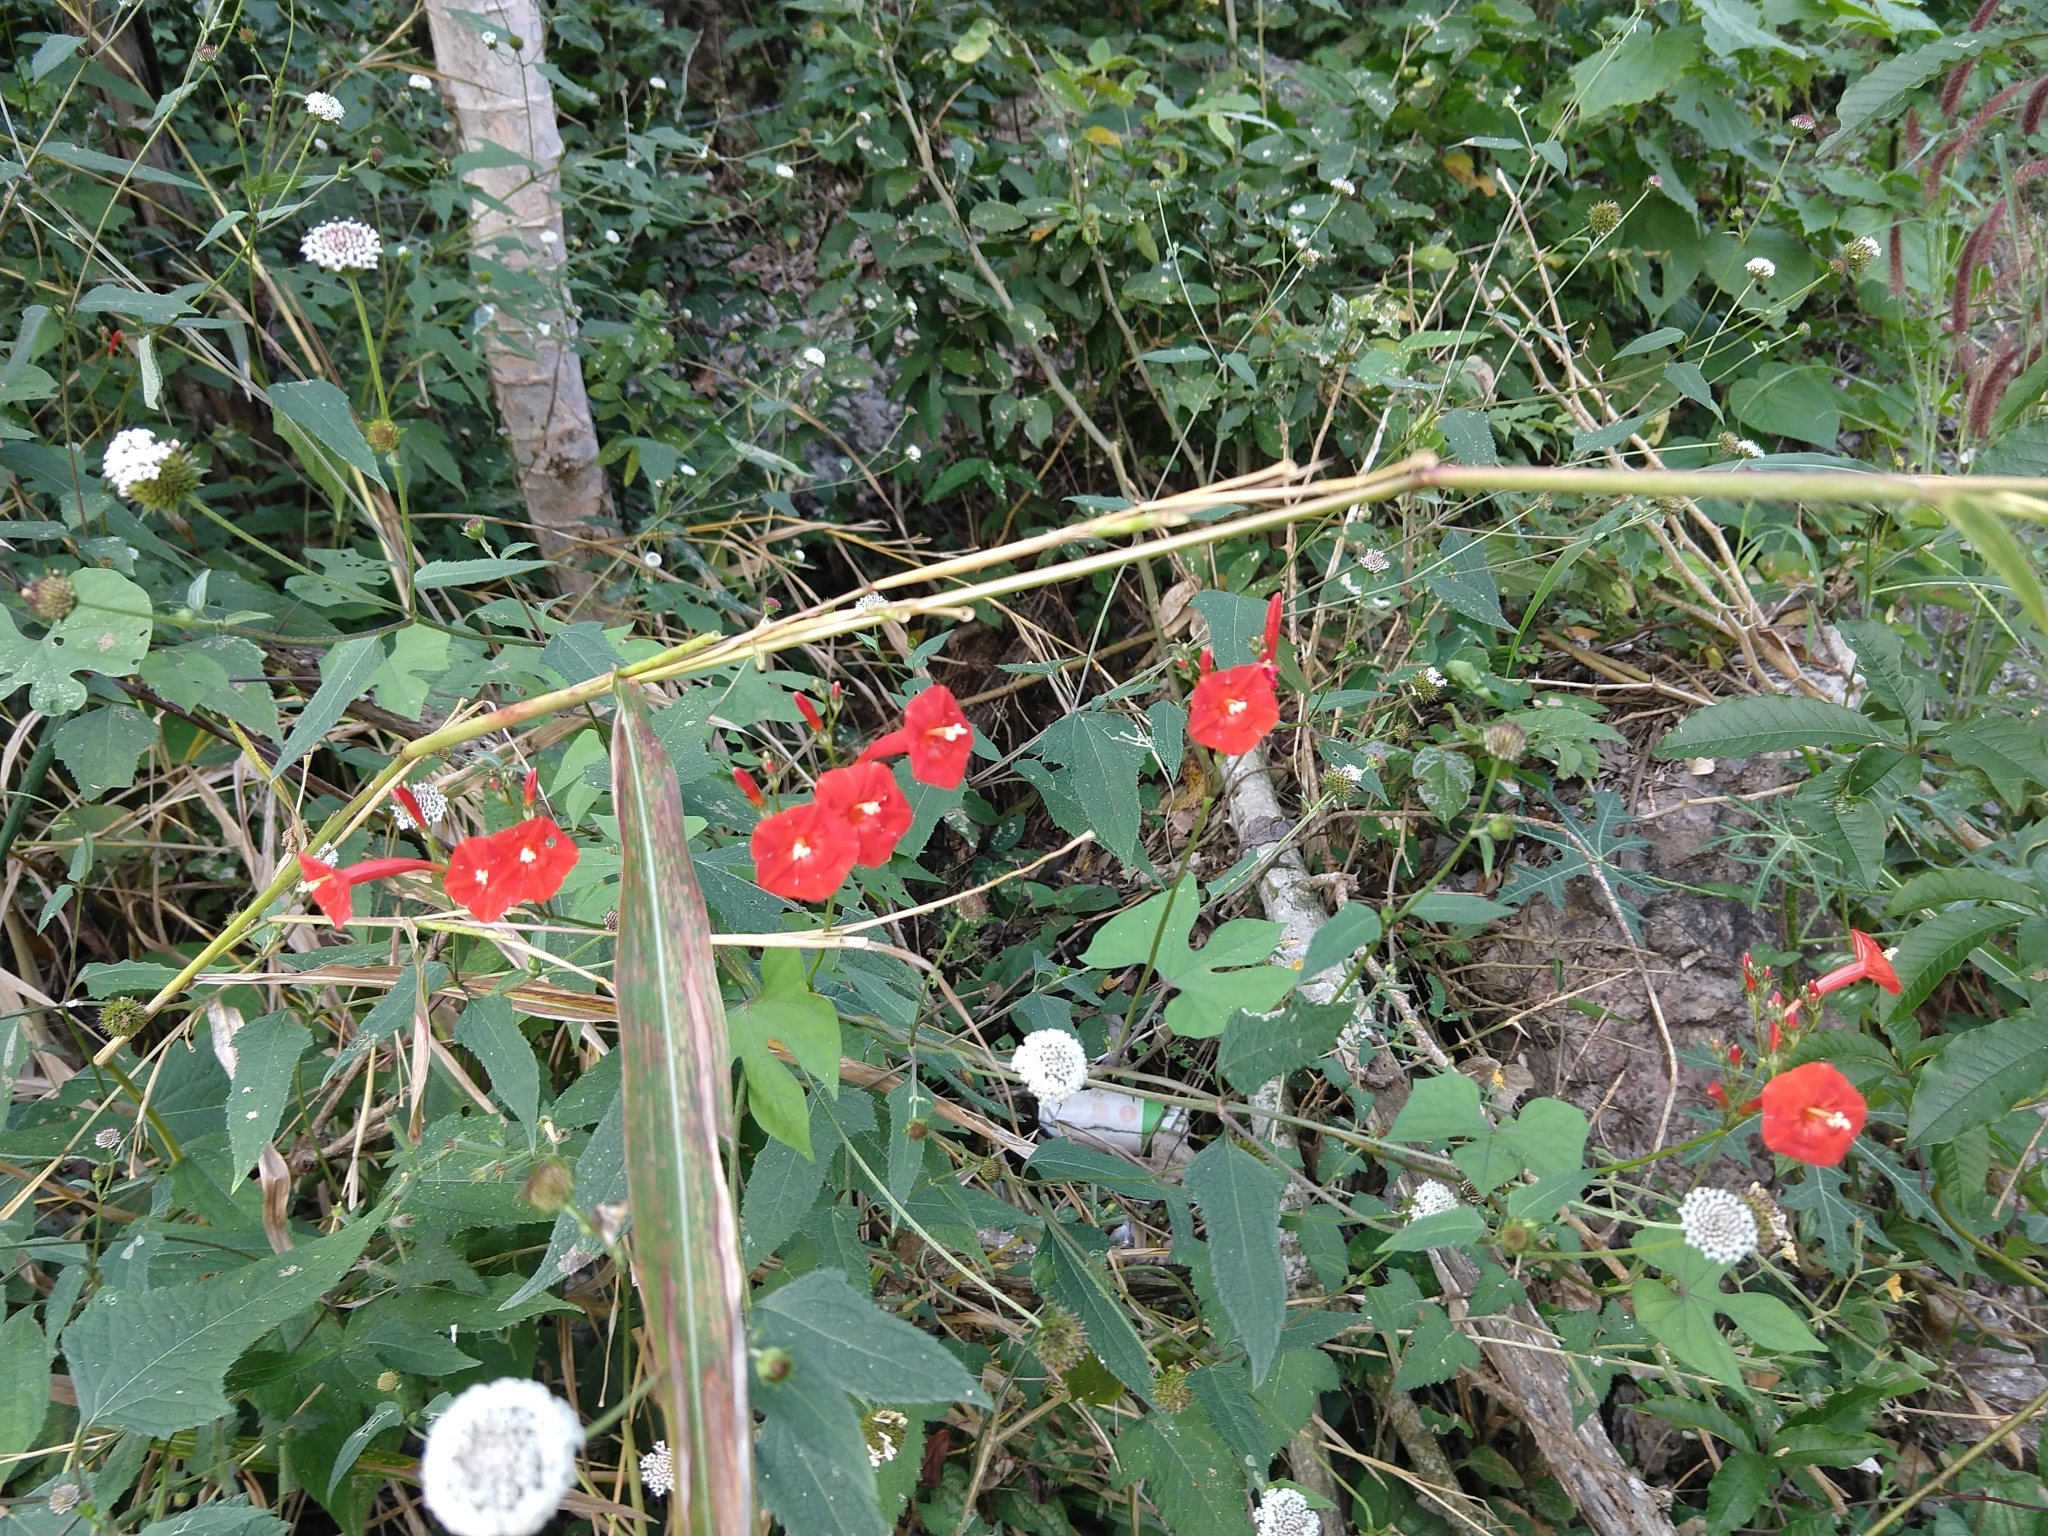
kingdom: Plantae
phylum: Tracheophyta
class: Magnoliopsida
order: Solanales
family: Convolvulaceae
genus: Ipomoea
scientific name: Ipomoea hederifolia
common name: Ivy-leaf morning-glory
